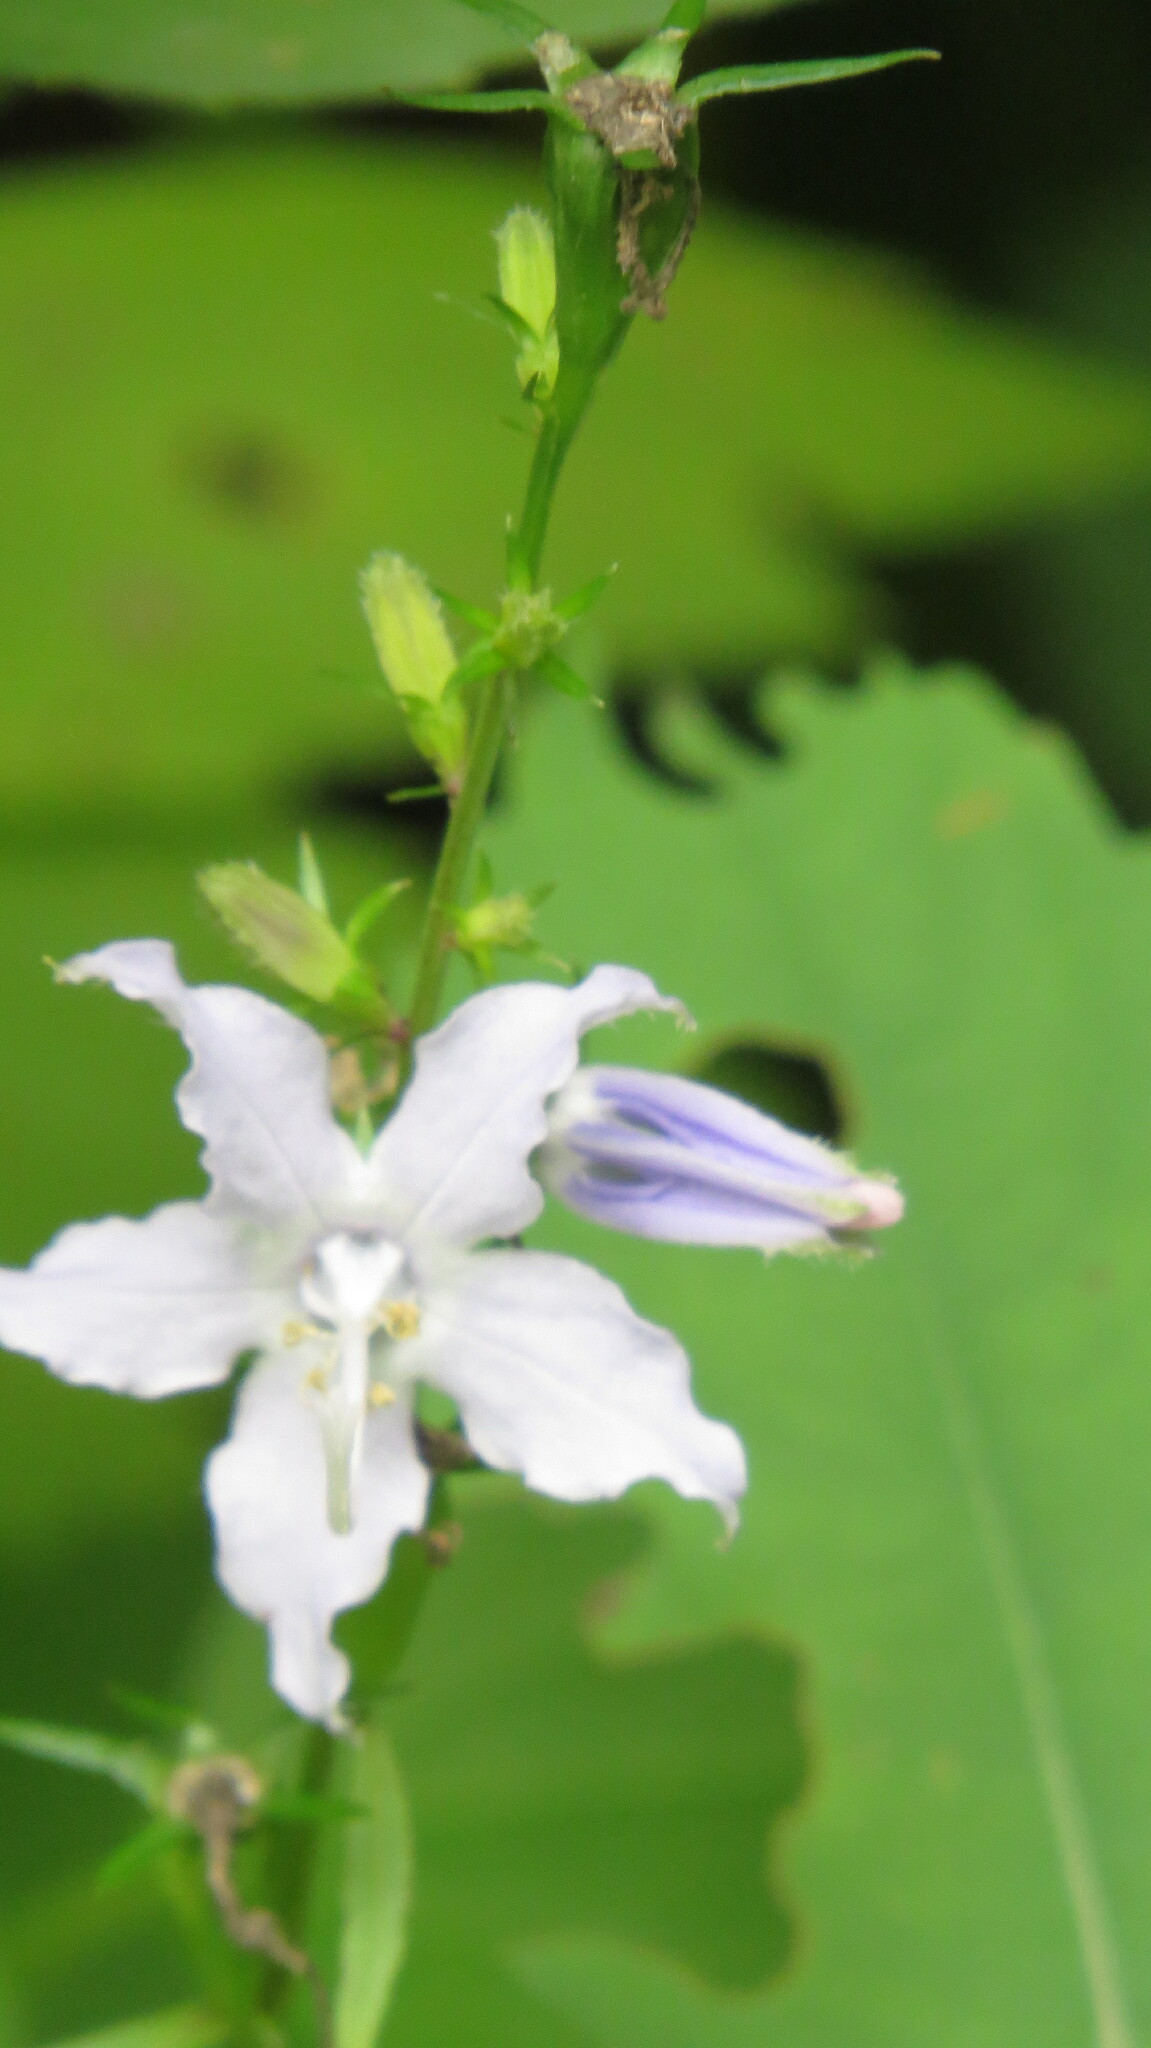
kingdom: Plantae
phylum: Tracheophyta
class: Magnoliopsida
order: Asterales
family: Campanulaceae
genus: Campanulastrum
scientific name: Campanulastrum americanum
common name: American bellflower
